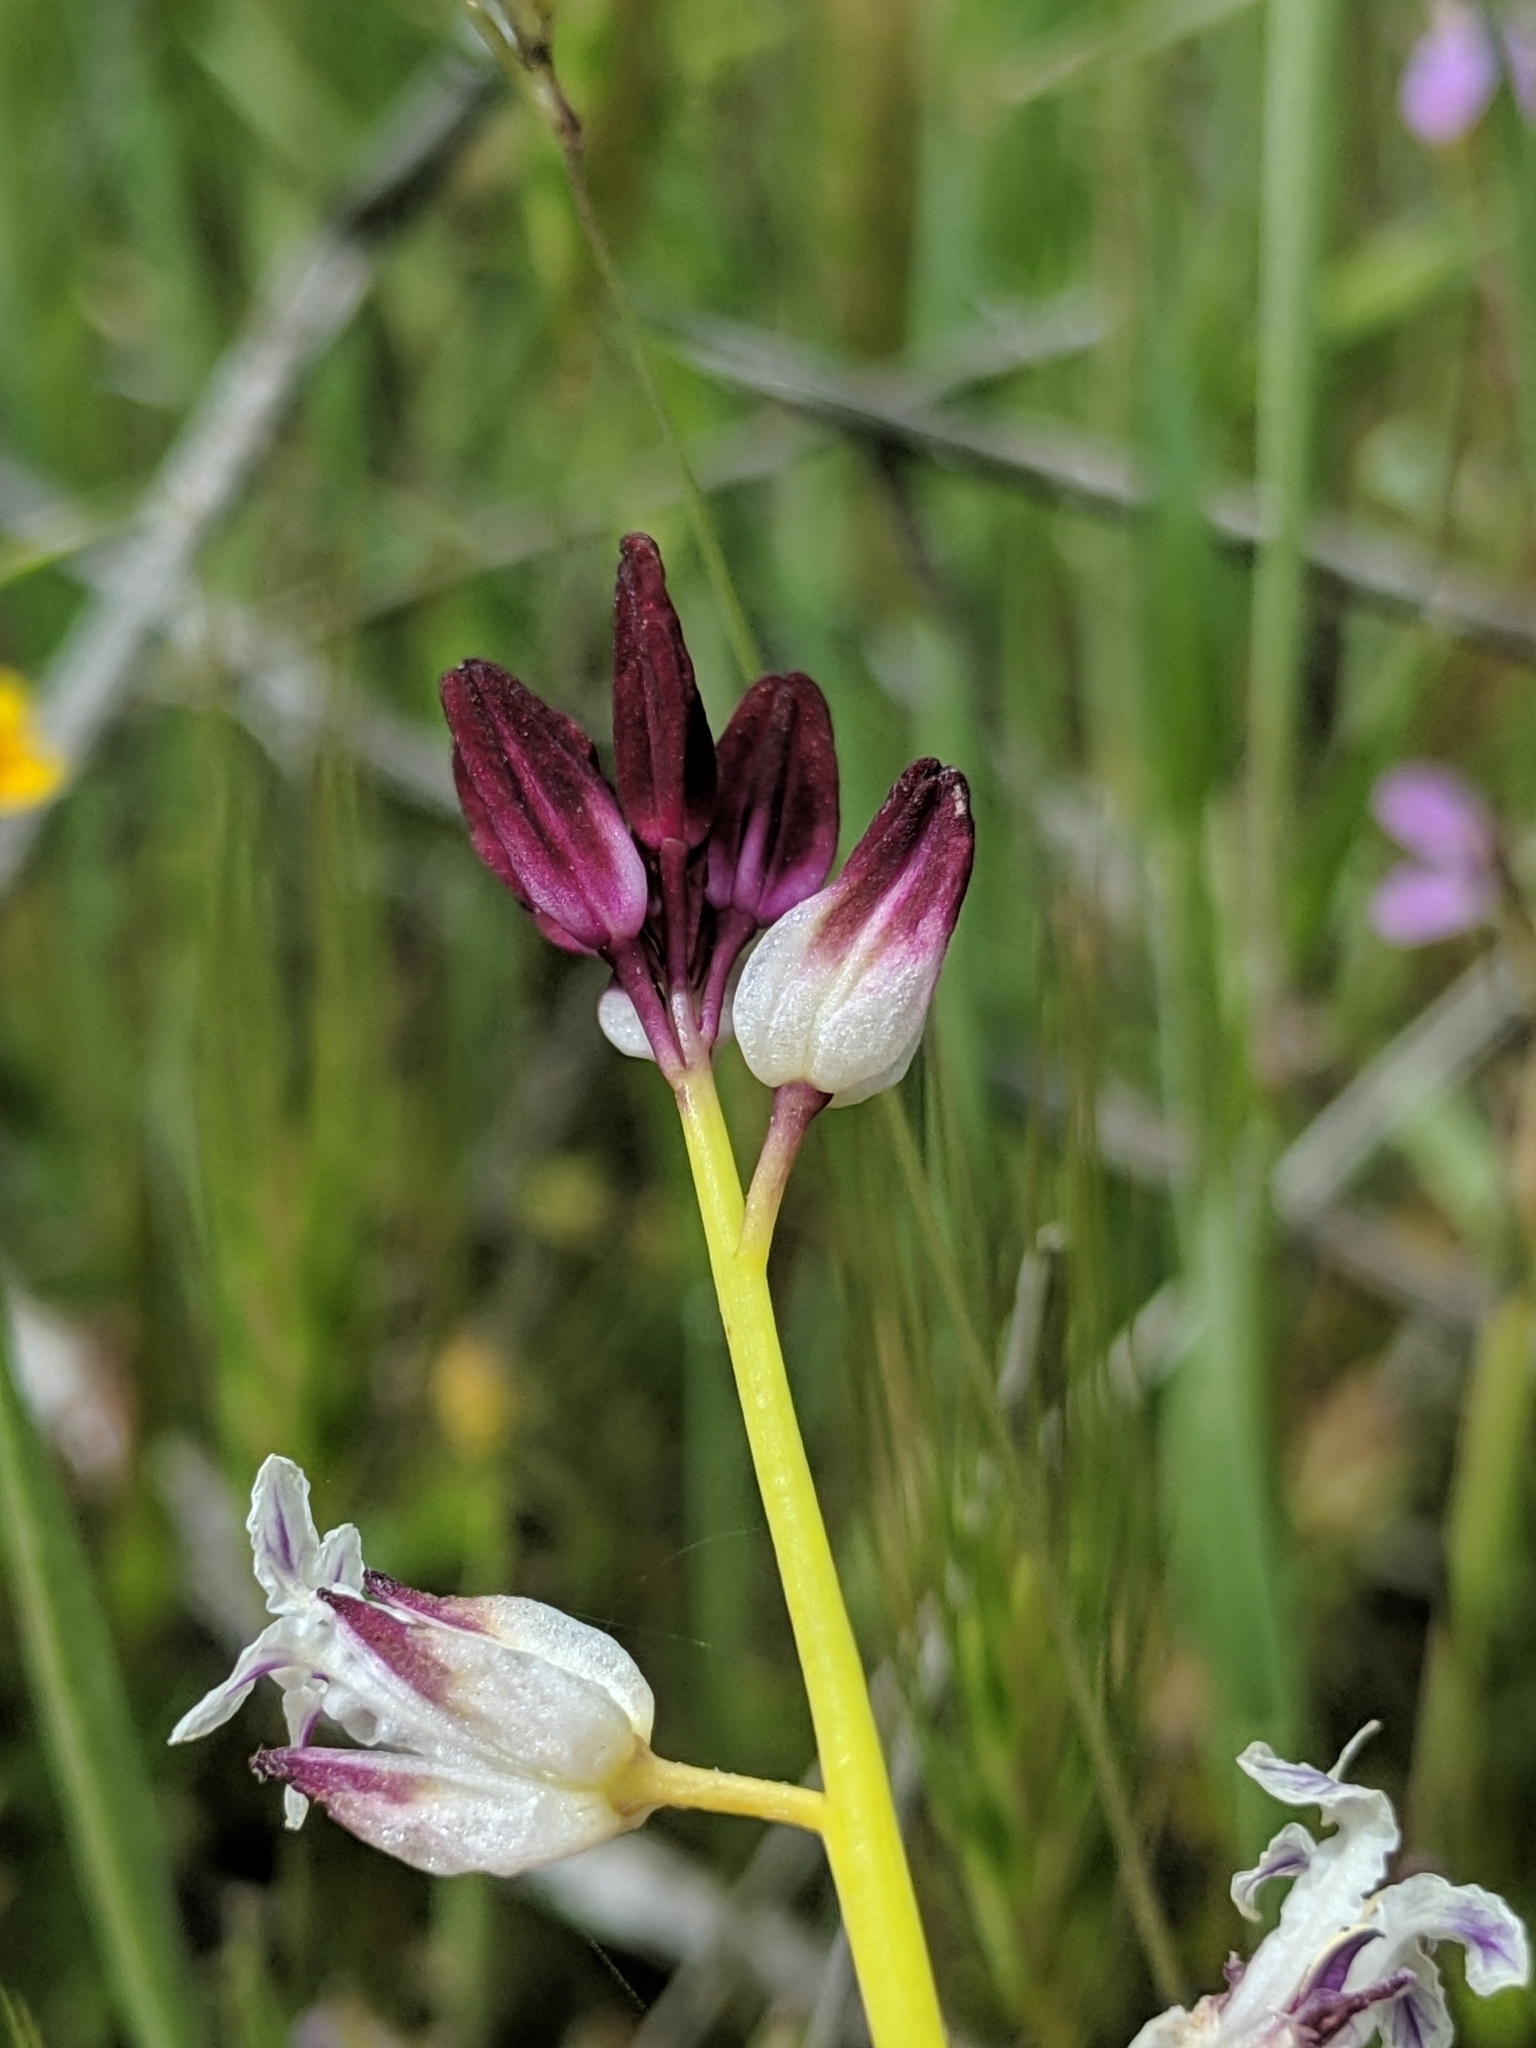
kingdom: Plantae
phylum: Tracheophyta
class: Magnoliopsida
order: Brassicales
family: Brassicaceae
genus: Streptanthus
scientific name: Streptanthus inflatus
